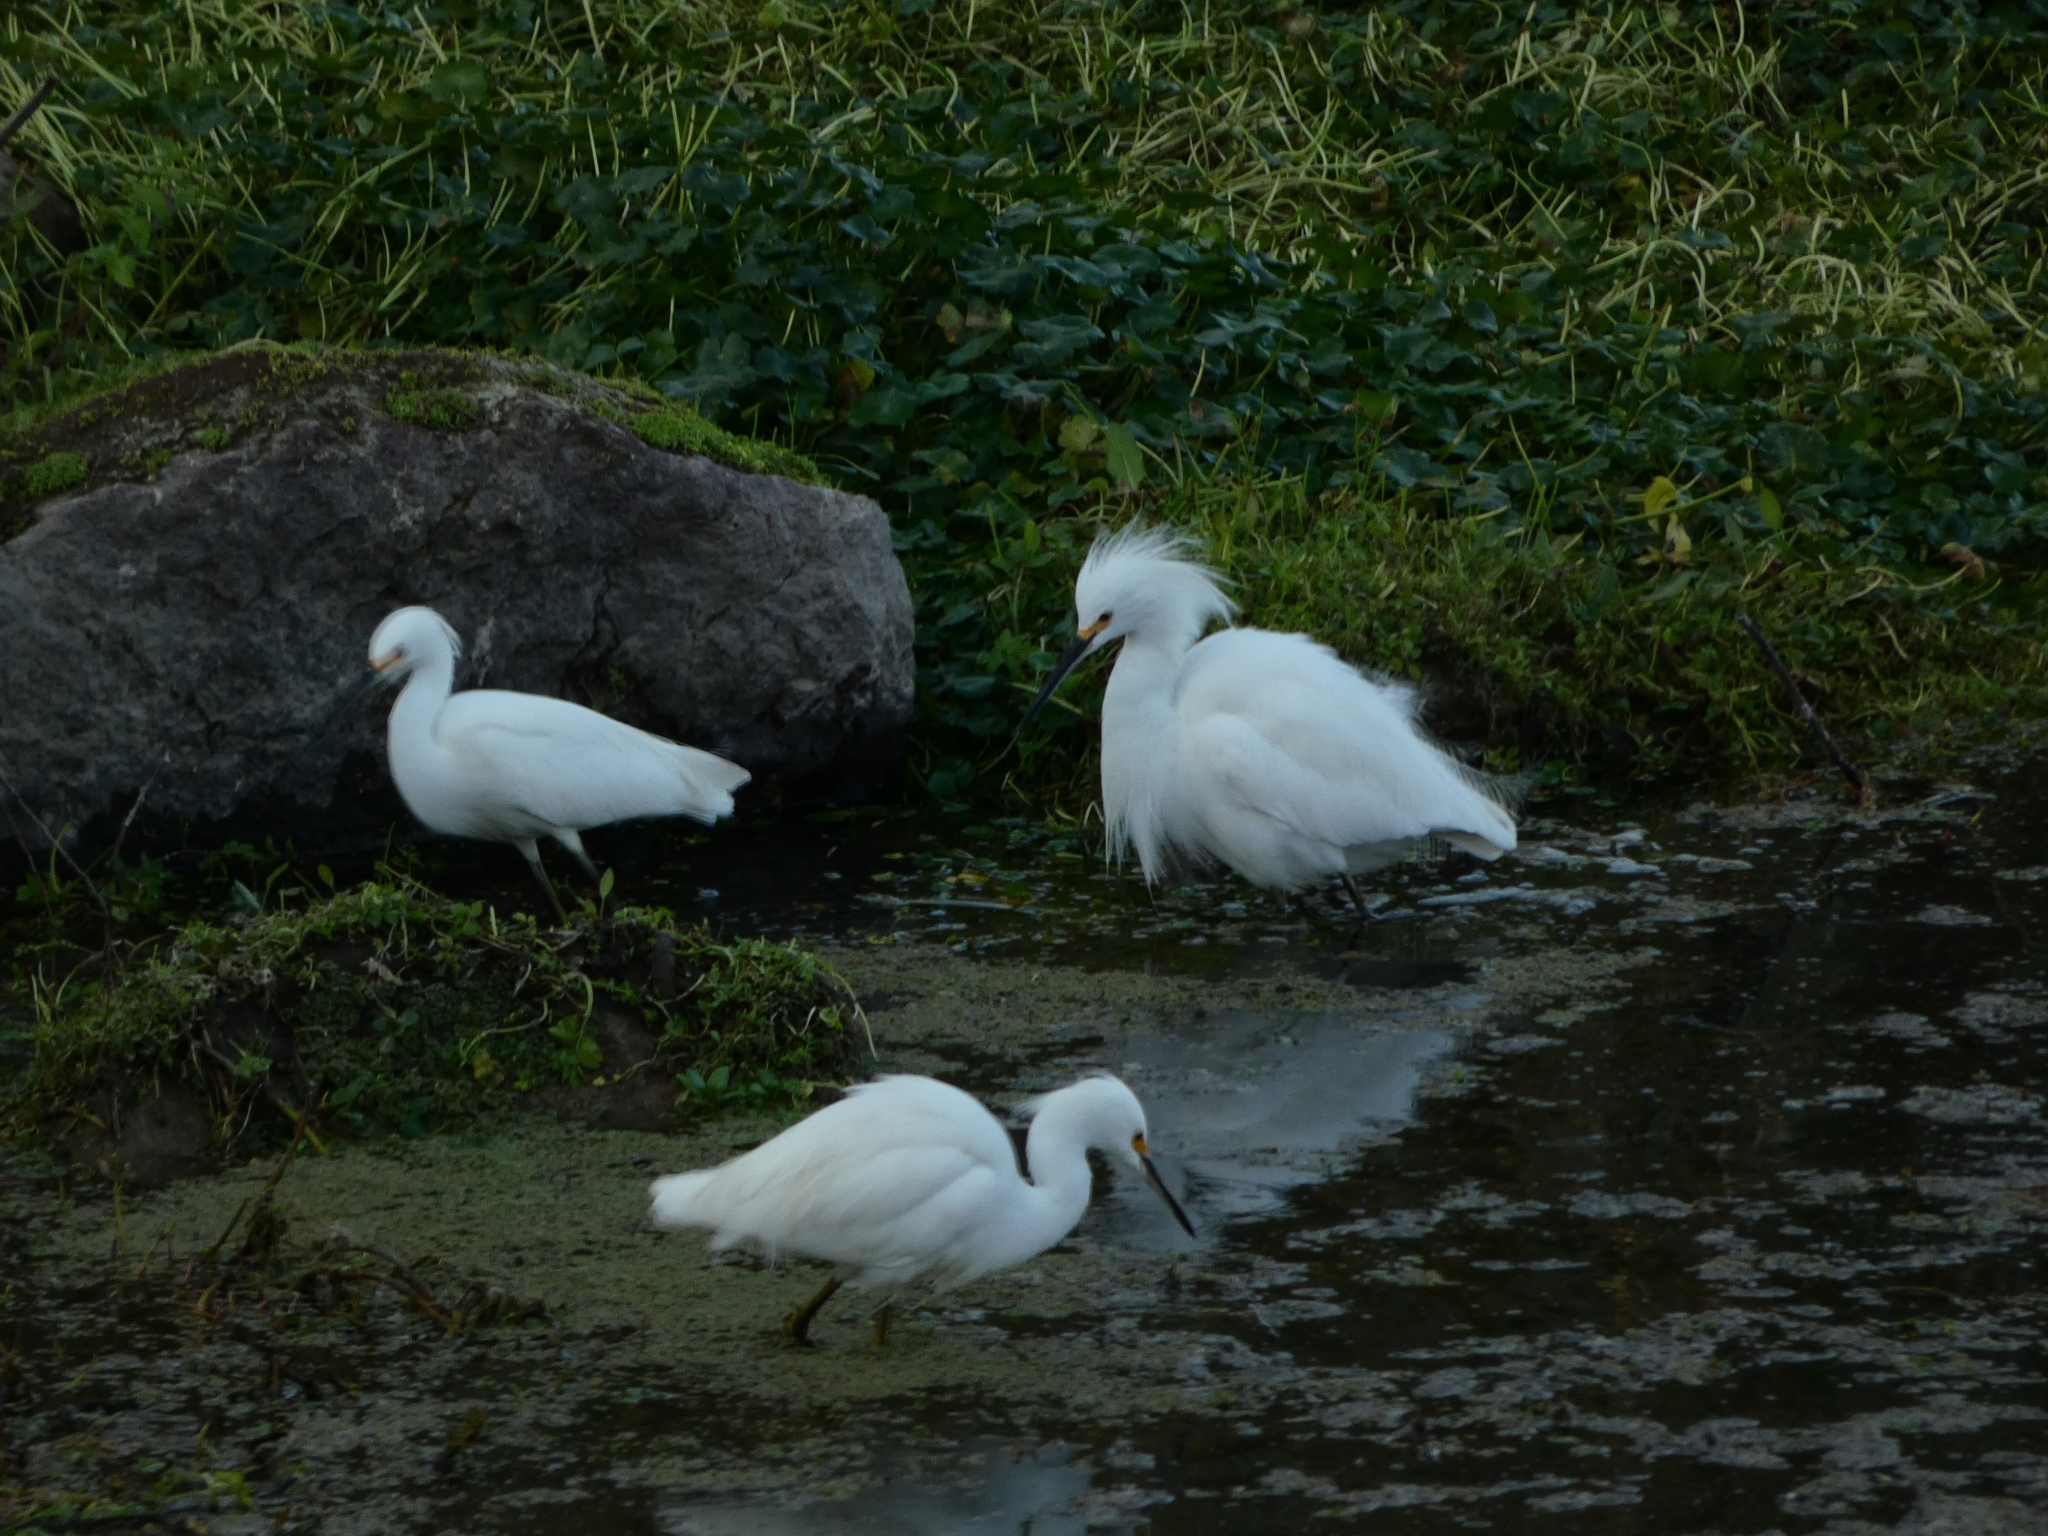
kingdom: Animalia
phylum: Chordata
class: Aves
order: Pelecaniformes
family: Ardeidae
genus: Egretta
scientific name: Egretta thula
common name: Snowy egret
